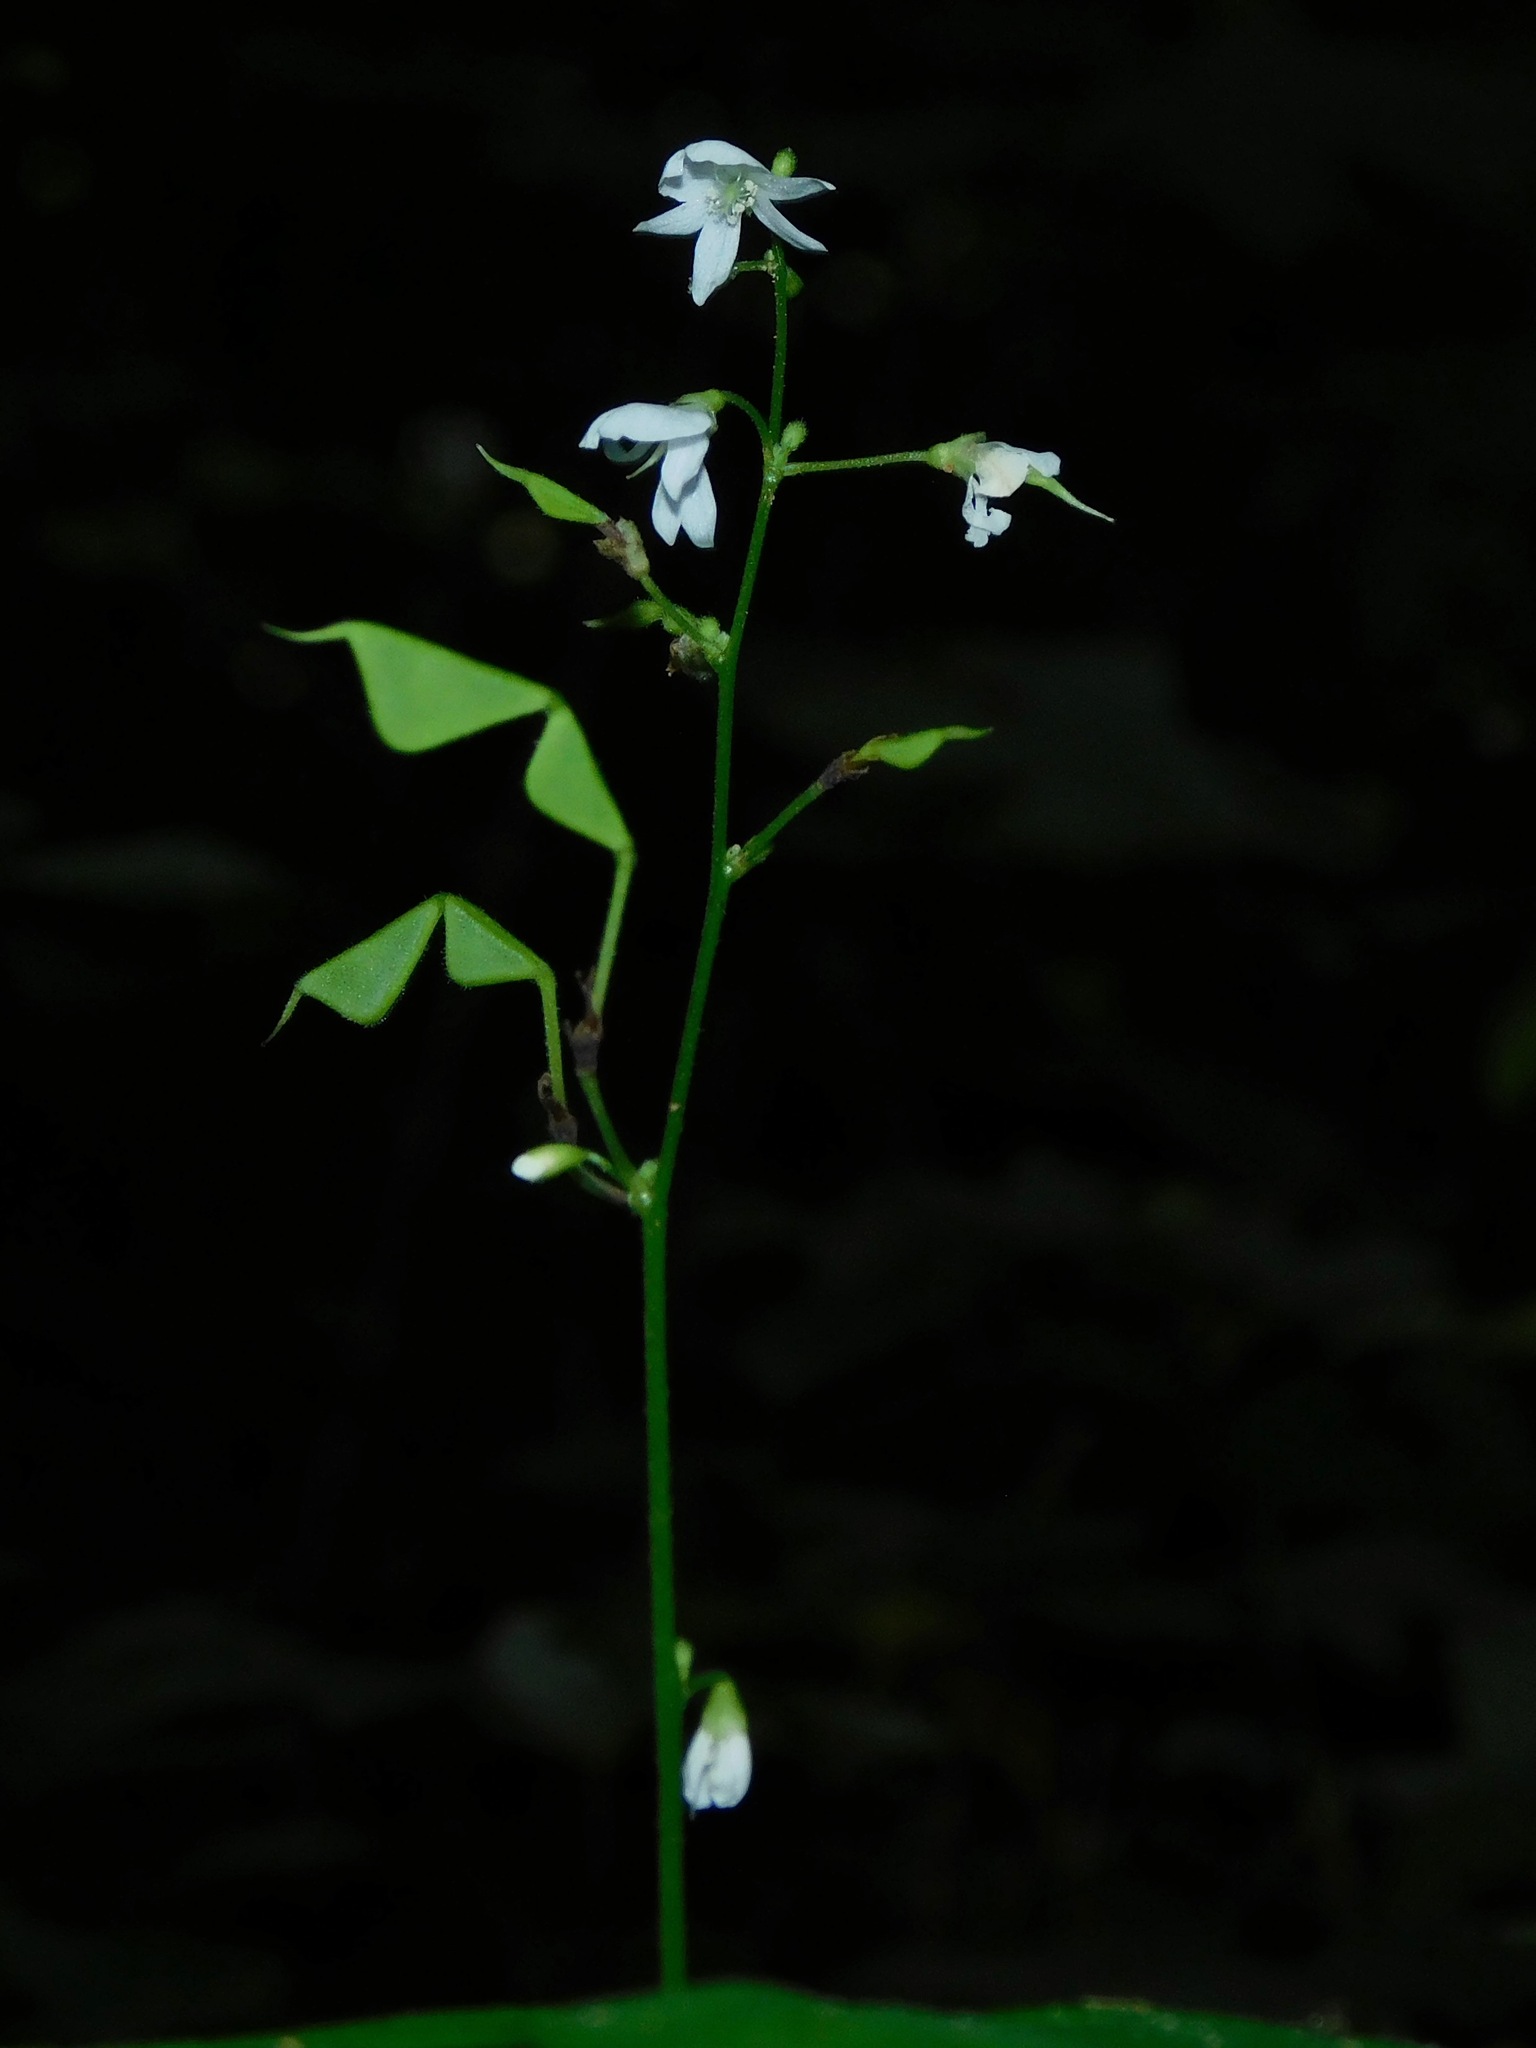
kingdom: Plantae
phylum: Tracheophyta
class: Magnoliopsida
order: Fabales
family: Fabaceae
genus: Hylodesmum
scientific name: Hylodesmum pauciflorum
